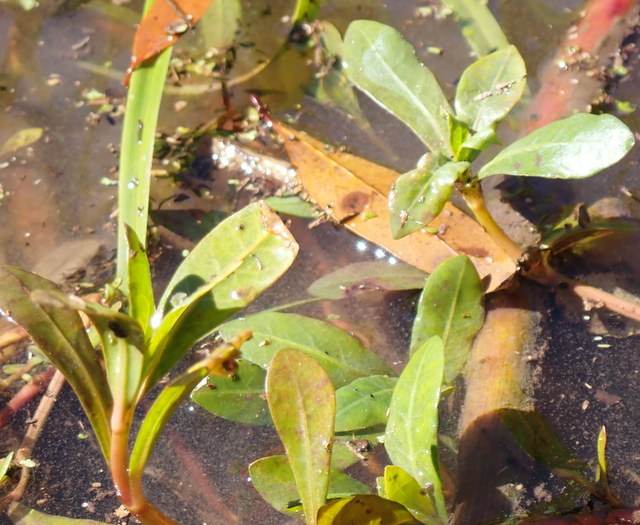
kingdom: Plantae
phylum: Tracheophyta
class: Magnoliopsida
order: Caryophyllales
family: Amaranthaceae
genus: Alternanthera
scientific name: Alternanthera philoxeroides
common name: Alligatorweed
